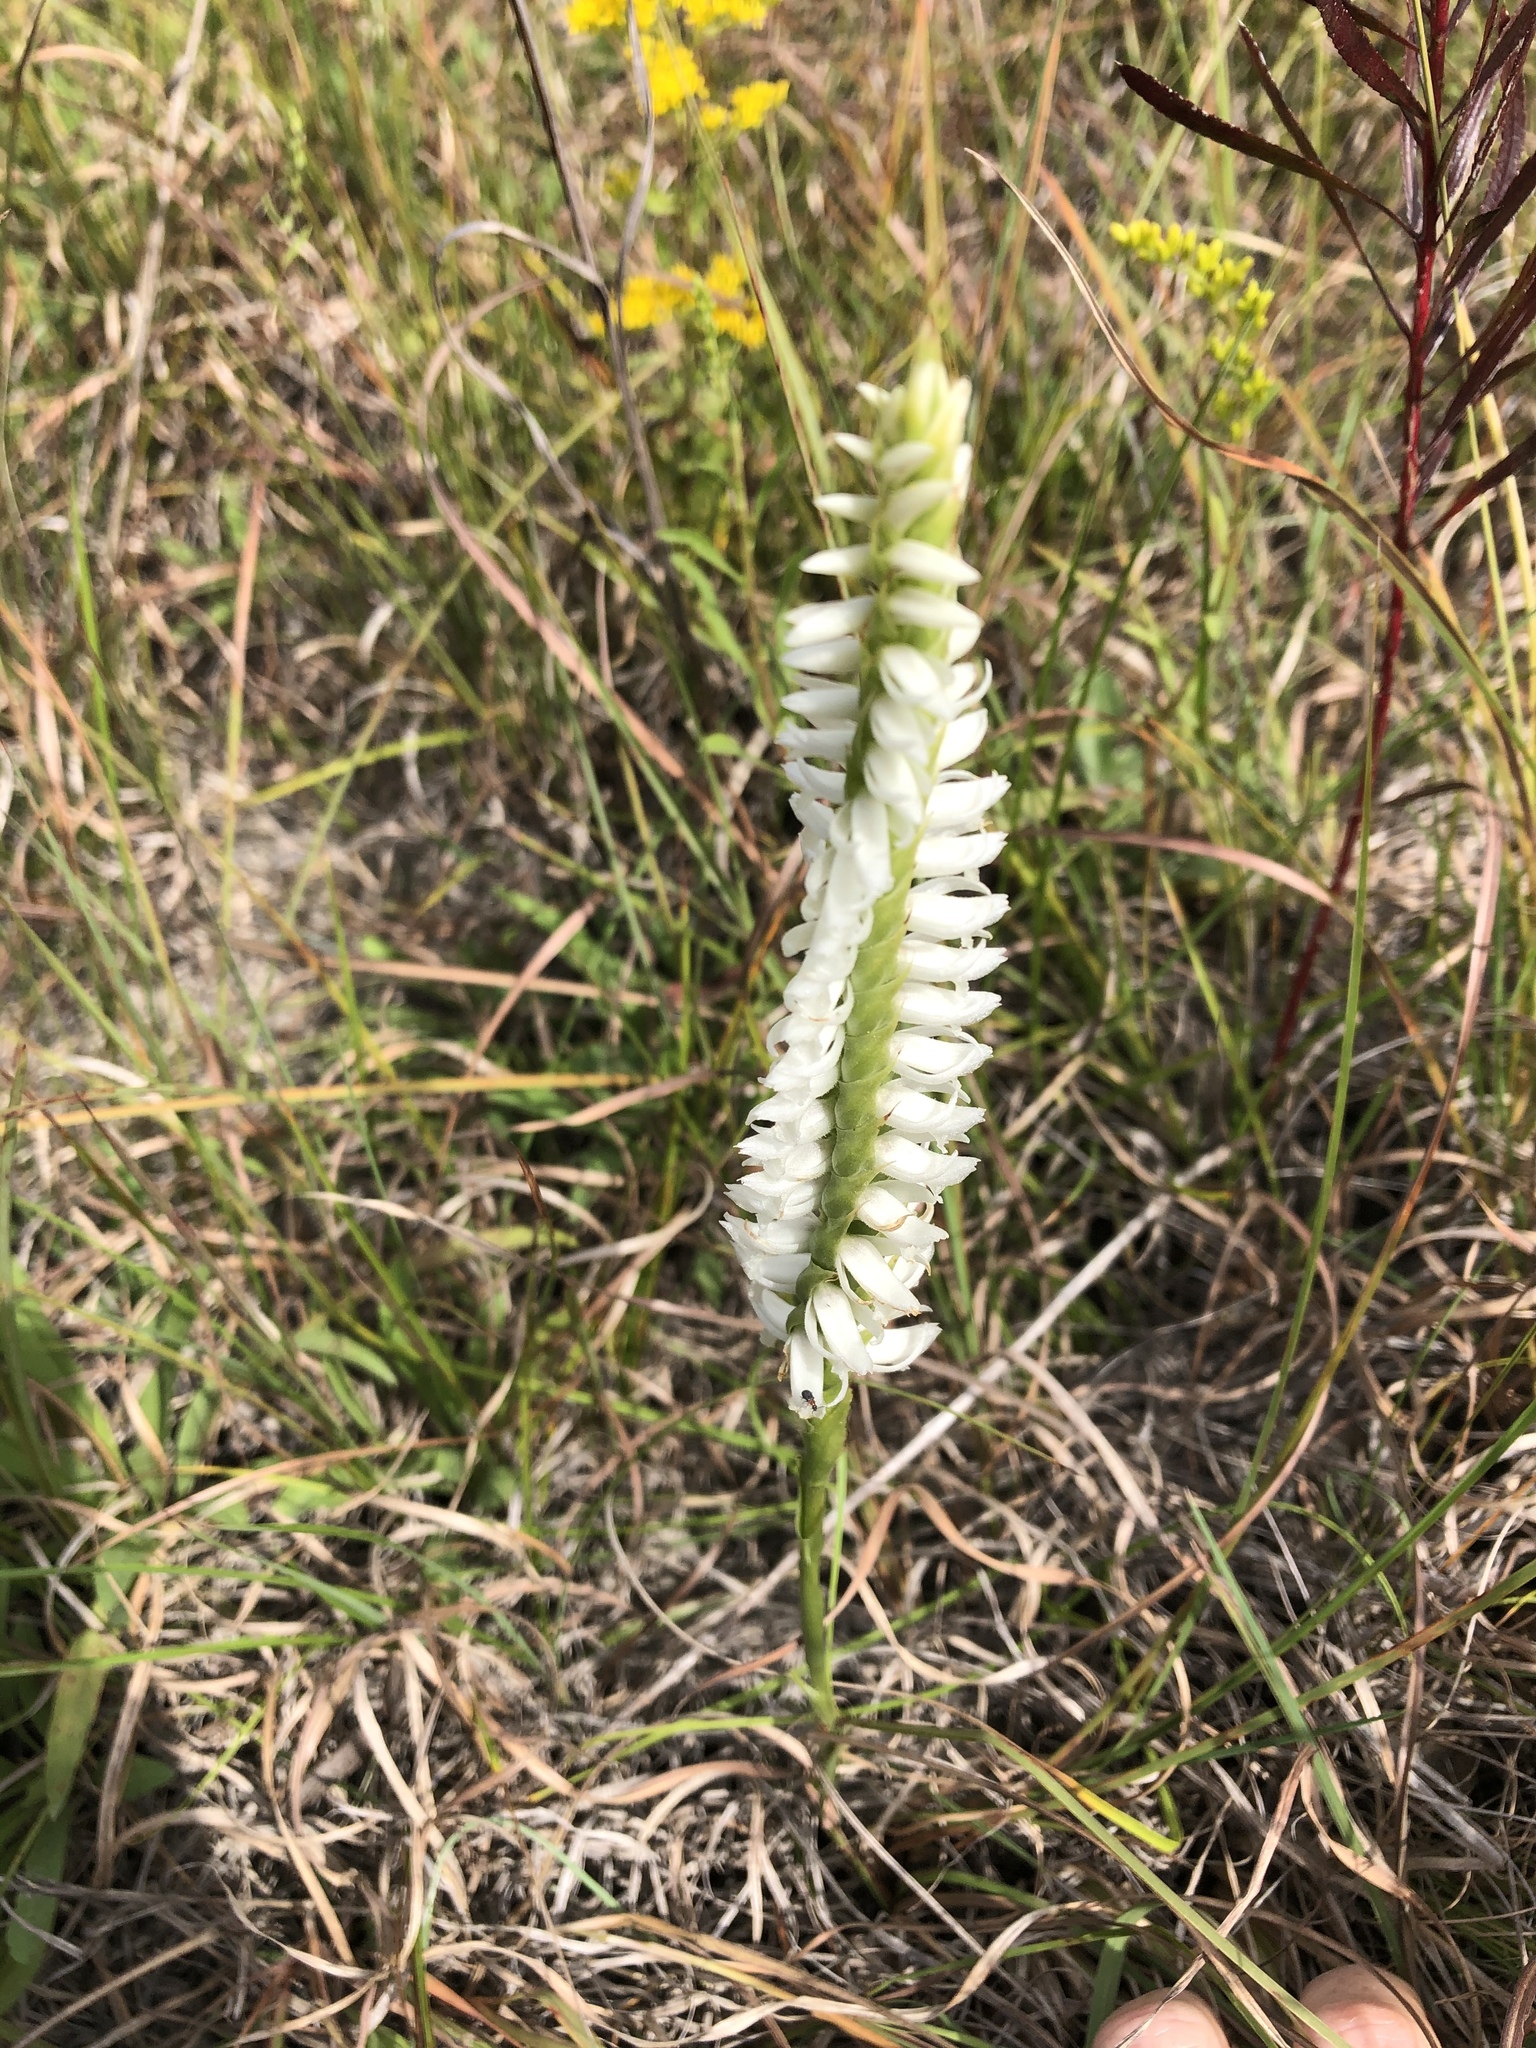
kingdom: Plantae
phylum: Tracheophyta
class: Liliopsida
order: Asparagales
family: Orchidaceae
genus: Spiranthes
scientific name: Spiranthes magnicamporum
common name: Great plains ladies'-tresses
